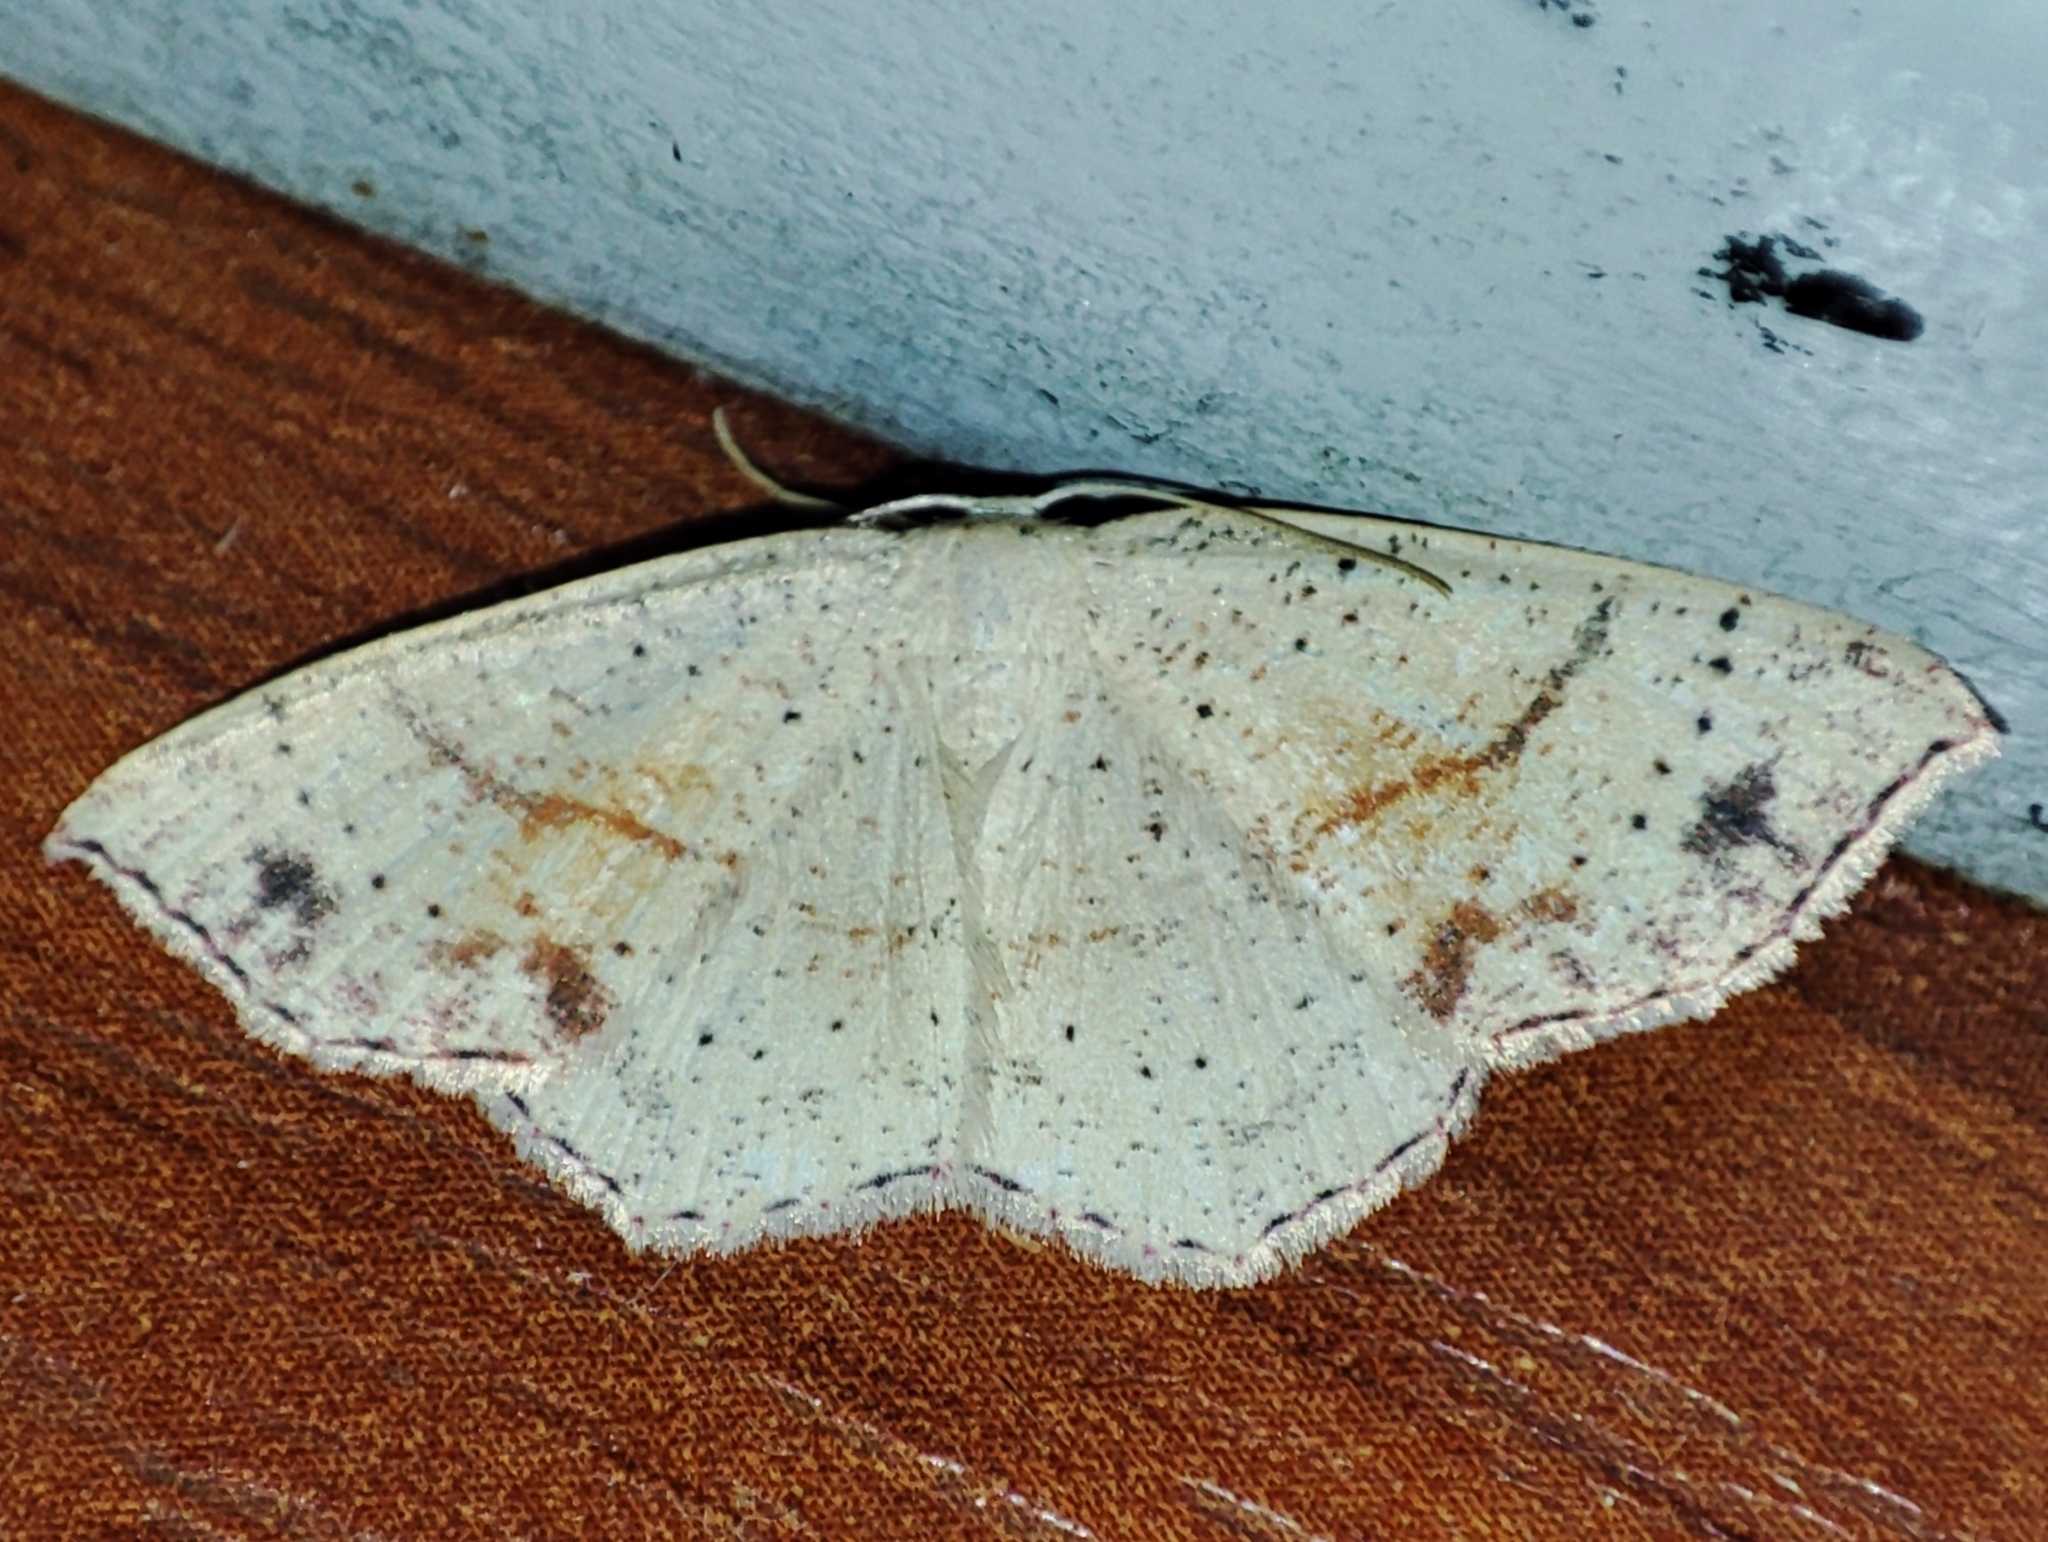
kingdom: Animalia
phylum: Arthropoda
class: Insecta
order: Lepidoptera
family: Geometridae
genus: Cyclophora
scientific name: Cyclophora punctaria
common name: Maiden's blush
